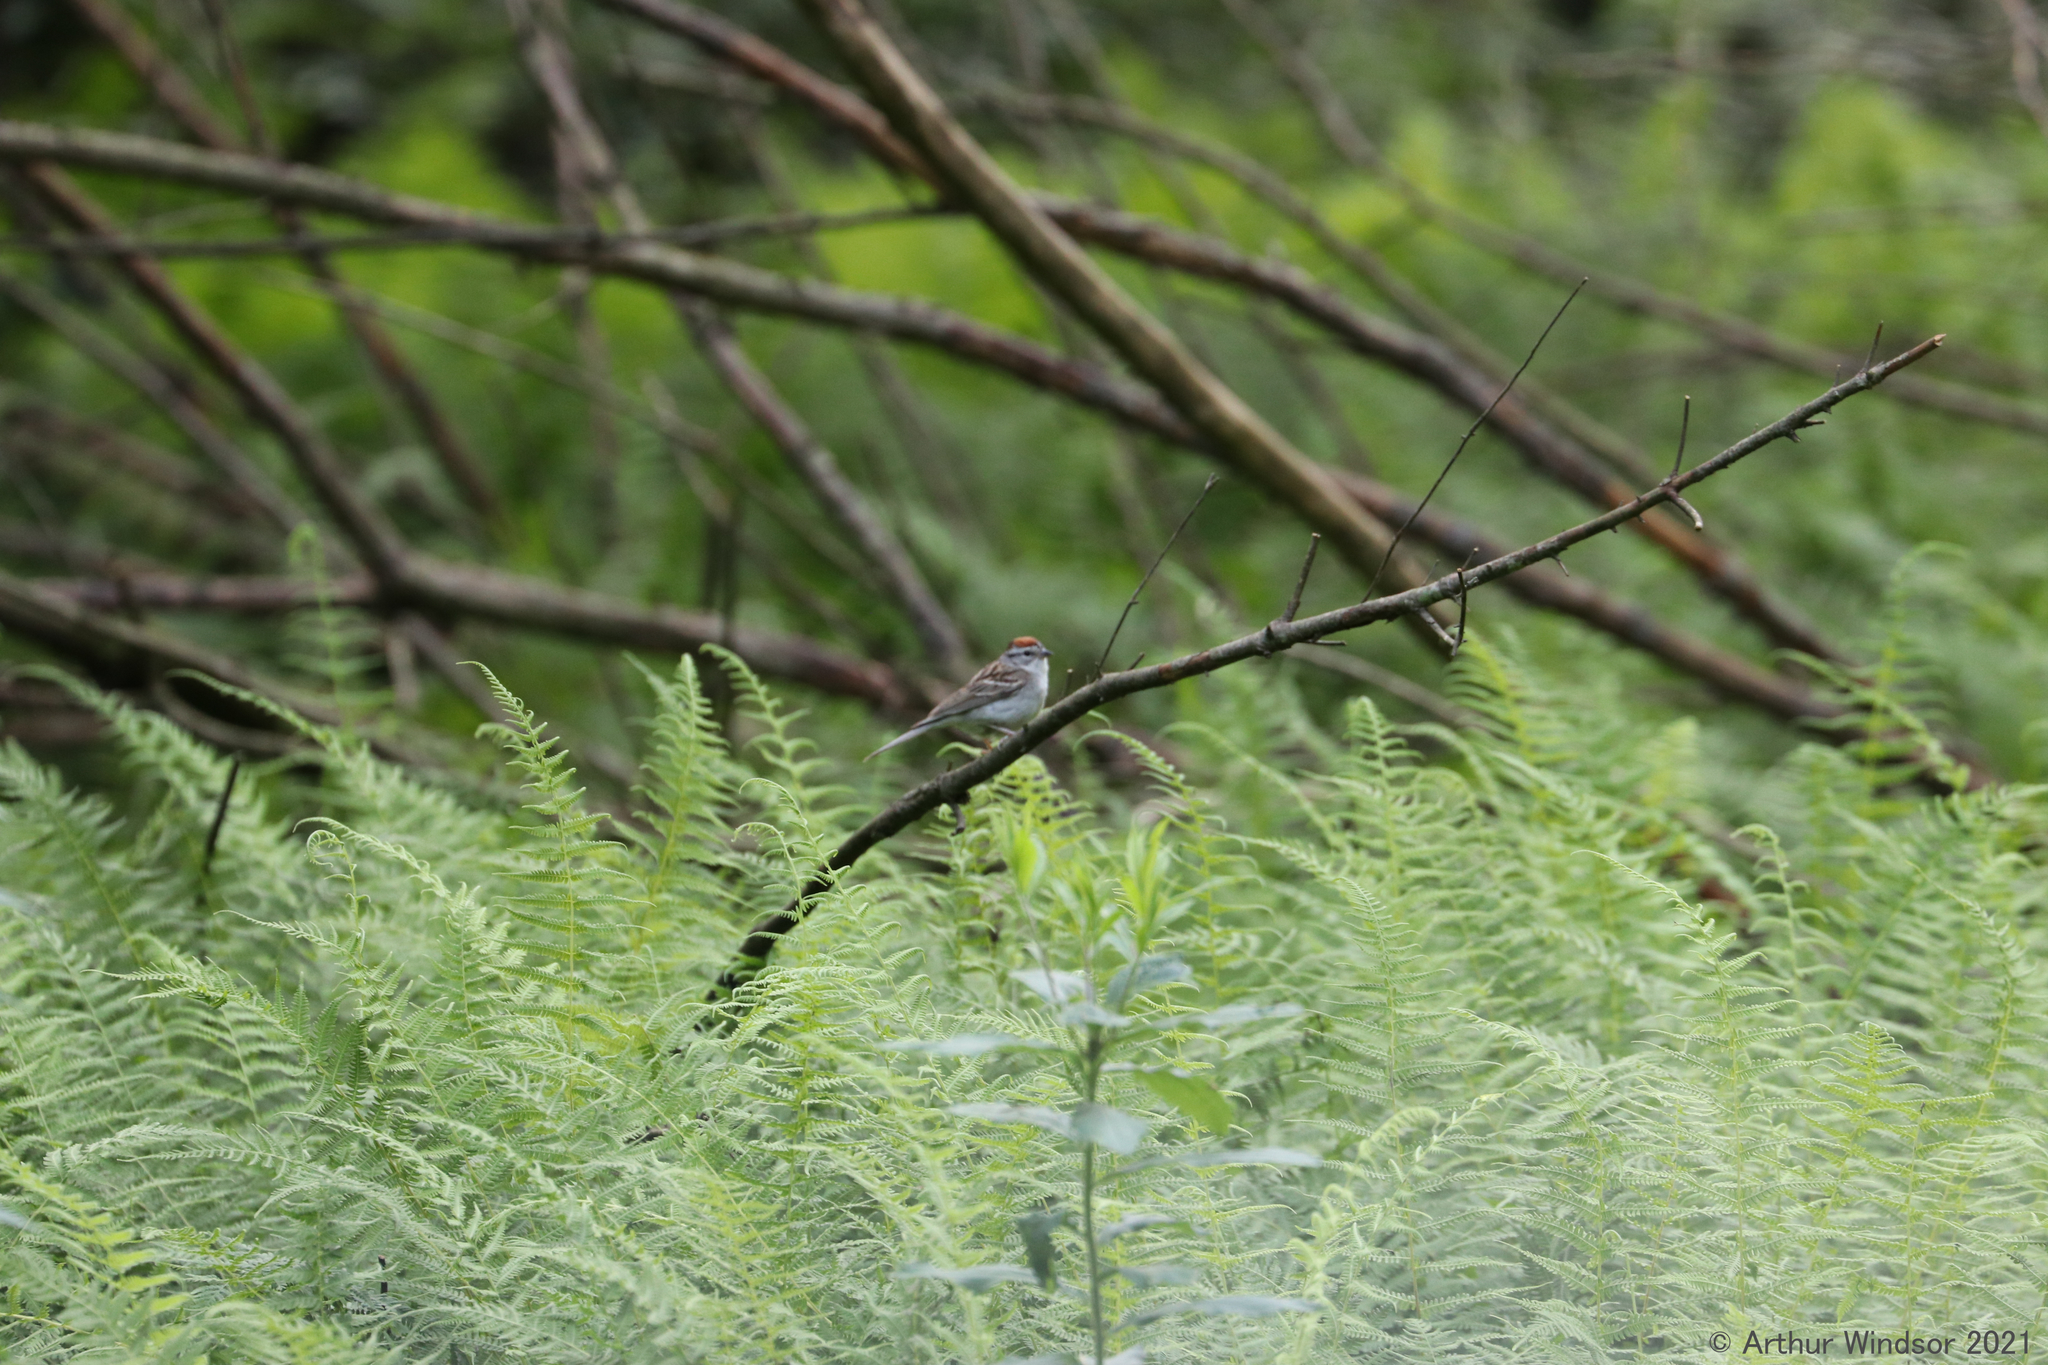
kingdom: Animalia
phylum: Chordata
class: Aves
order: Passeriformes
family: Passerellidae
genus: Spizella
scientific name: Spizella passerina
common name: Chipping sparrow
